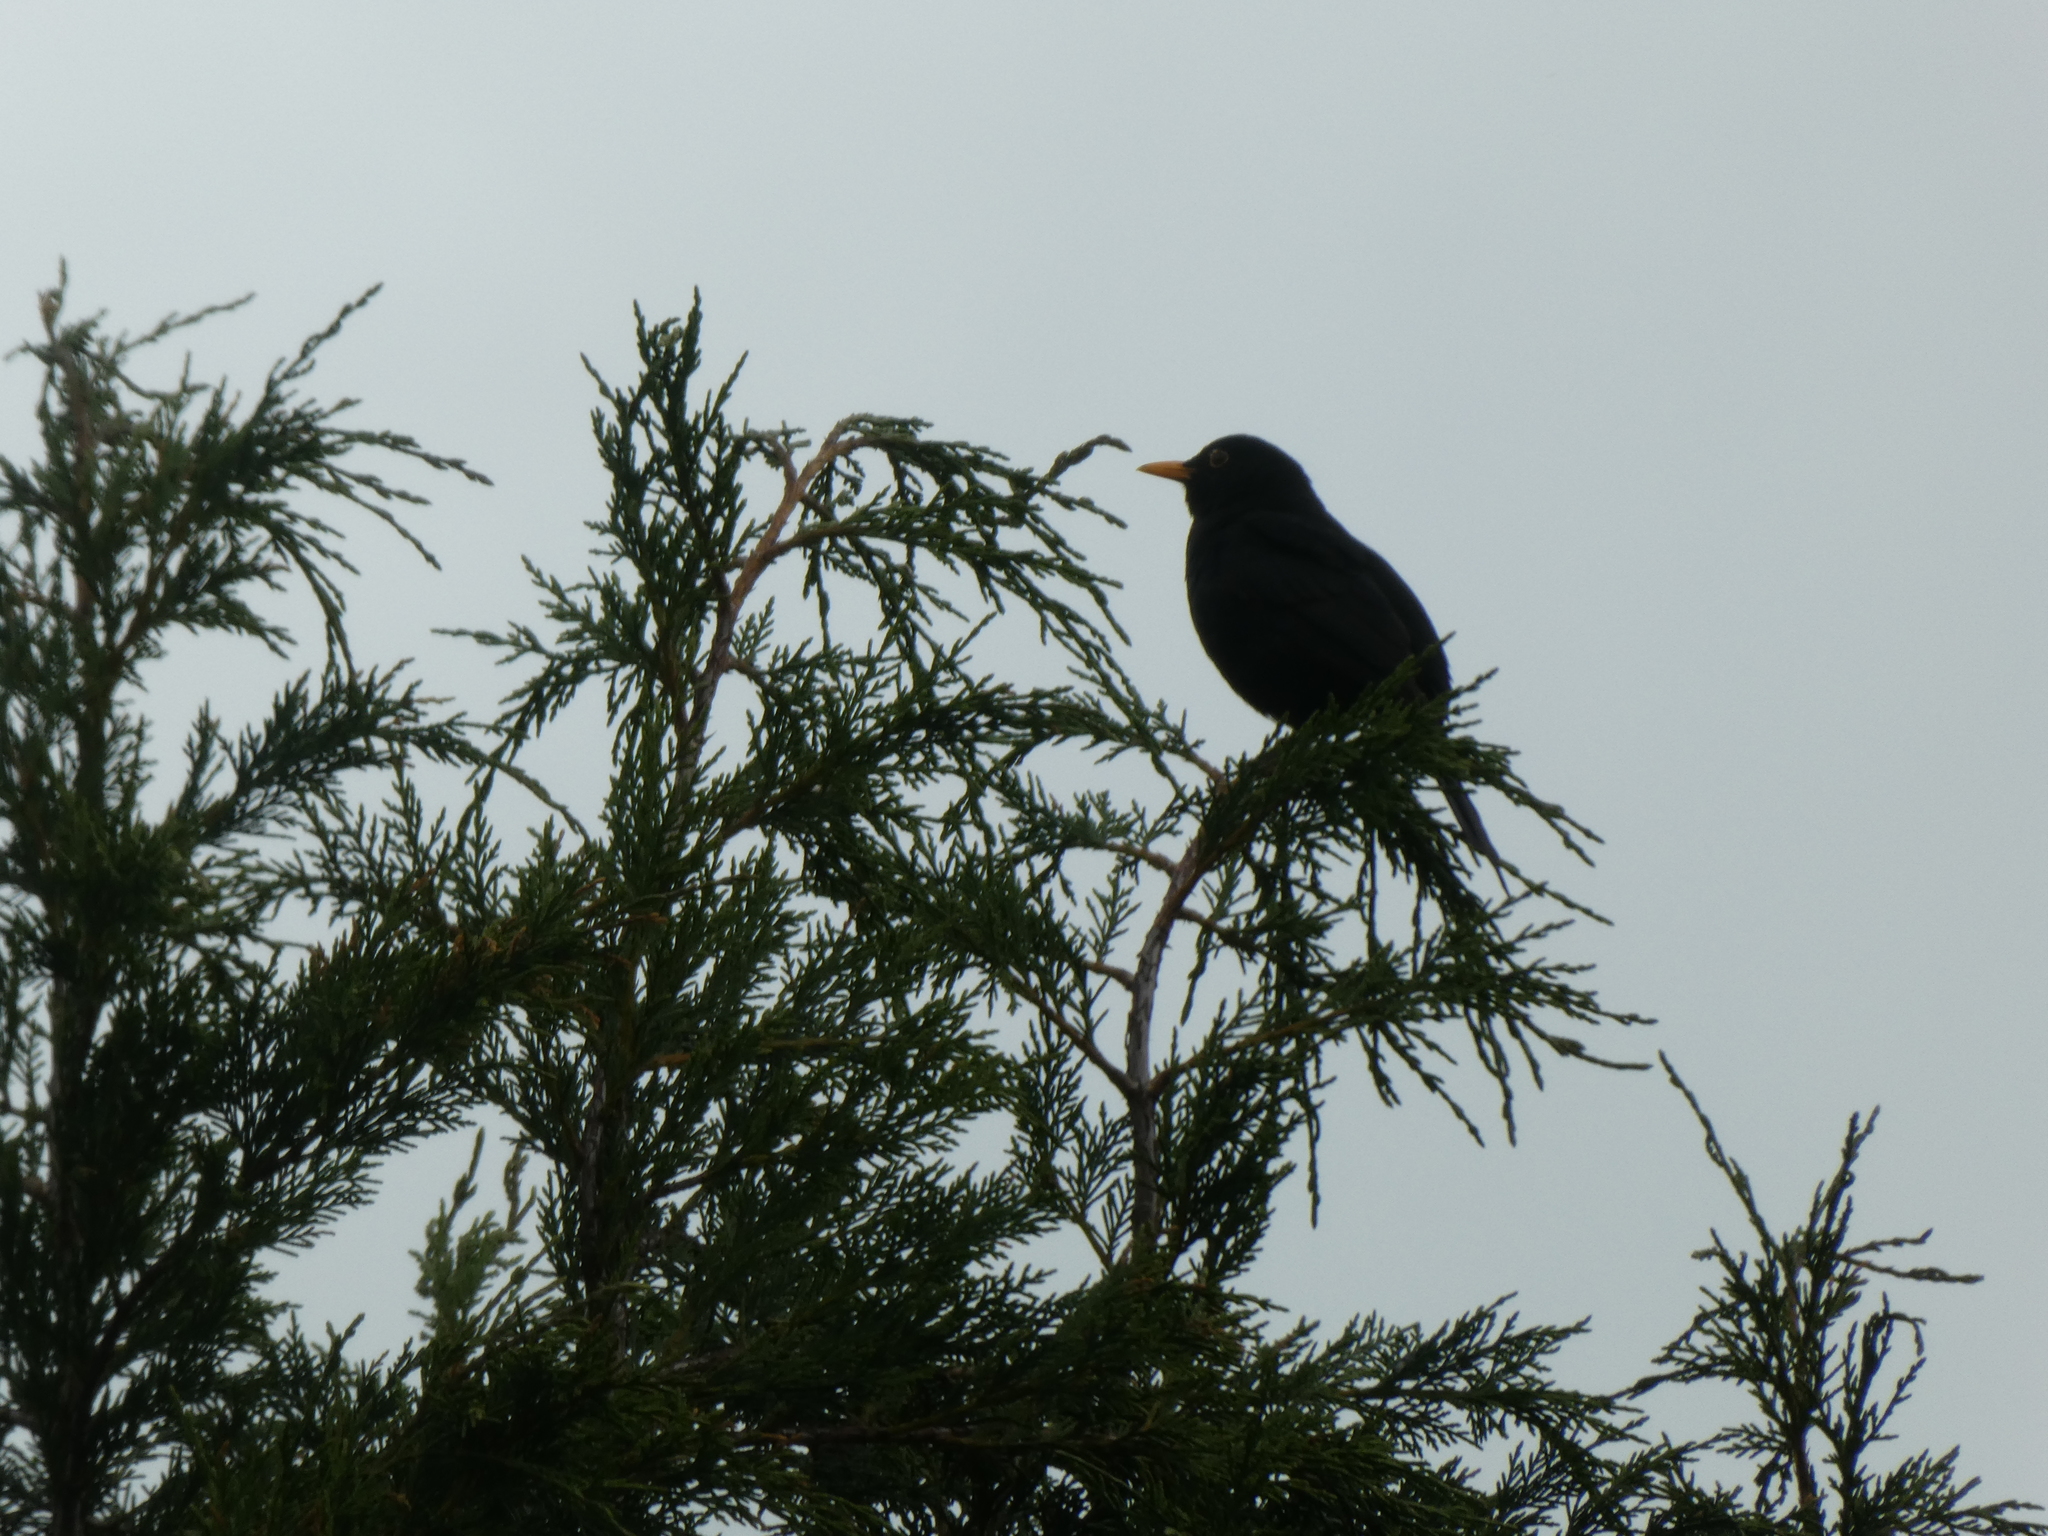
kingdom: Animalia
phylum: Chordata
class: Aves
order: Passeriformes
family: Turdidae
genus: Turdus
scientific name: Turdus merula
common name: Common blackbird
